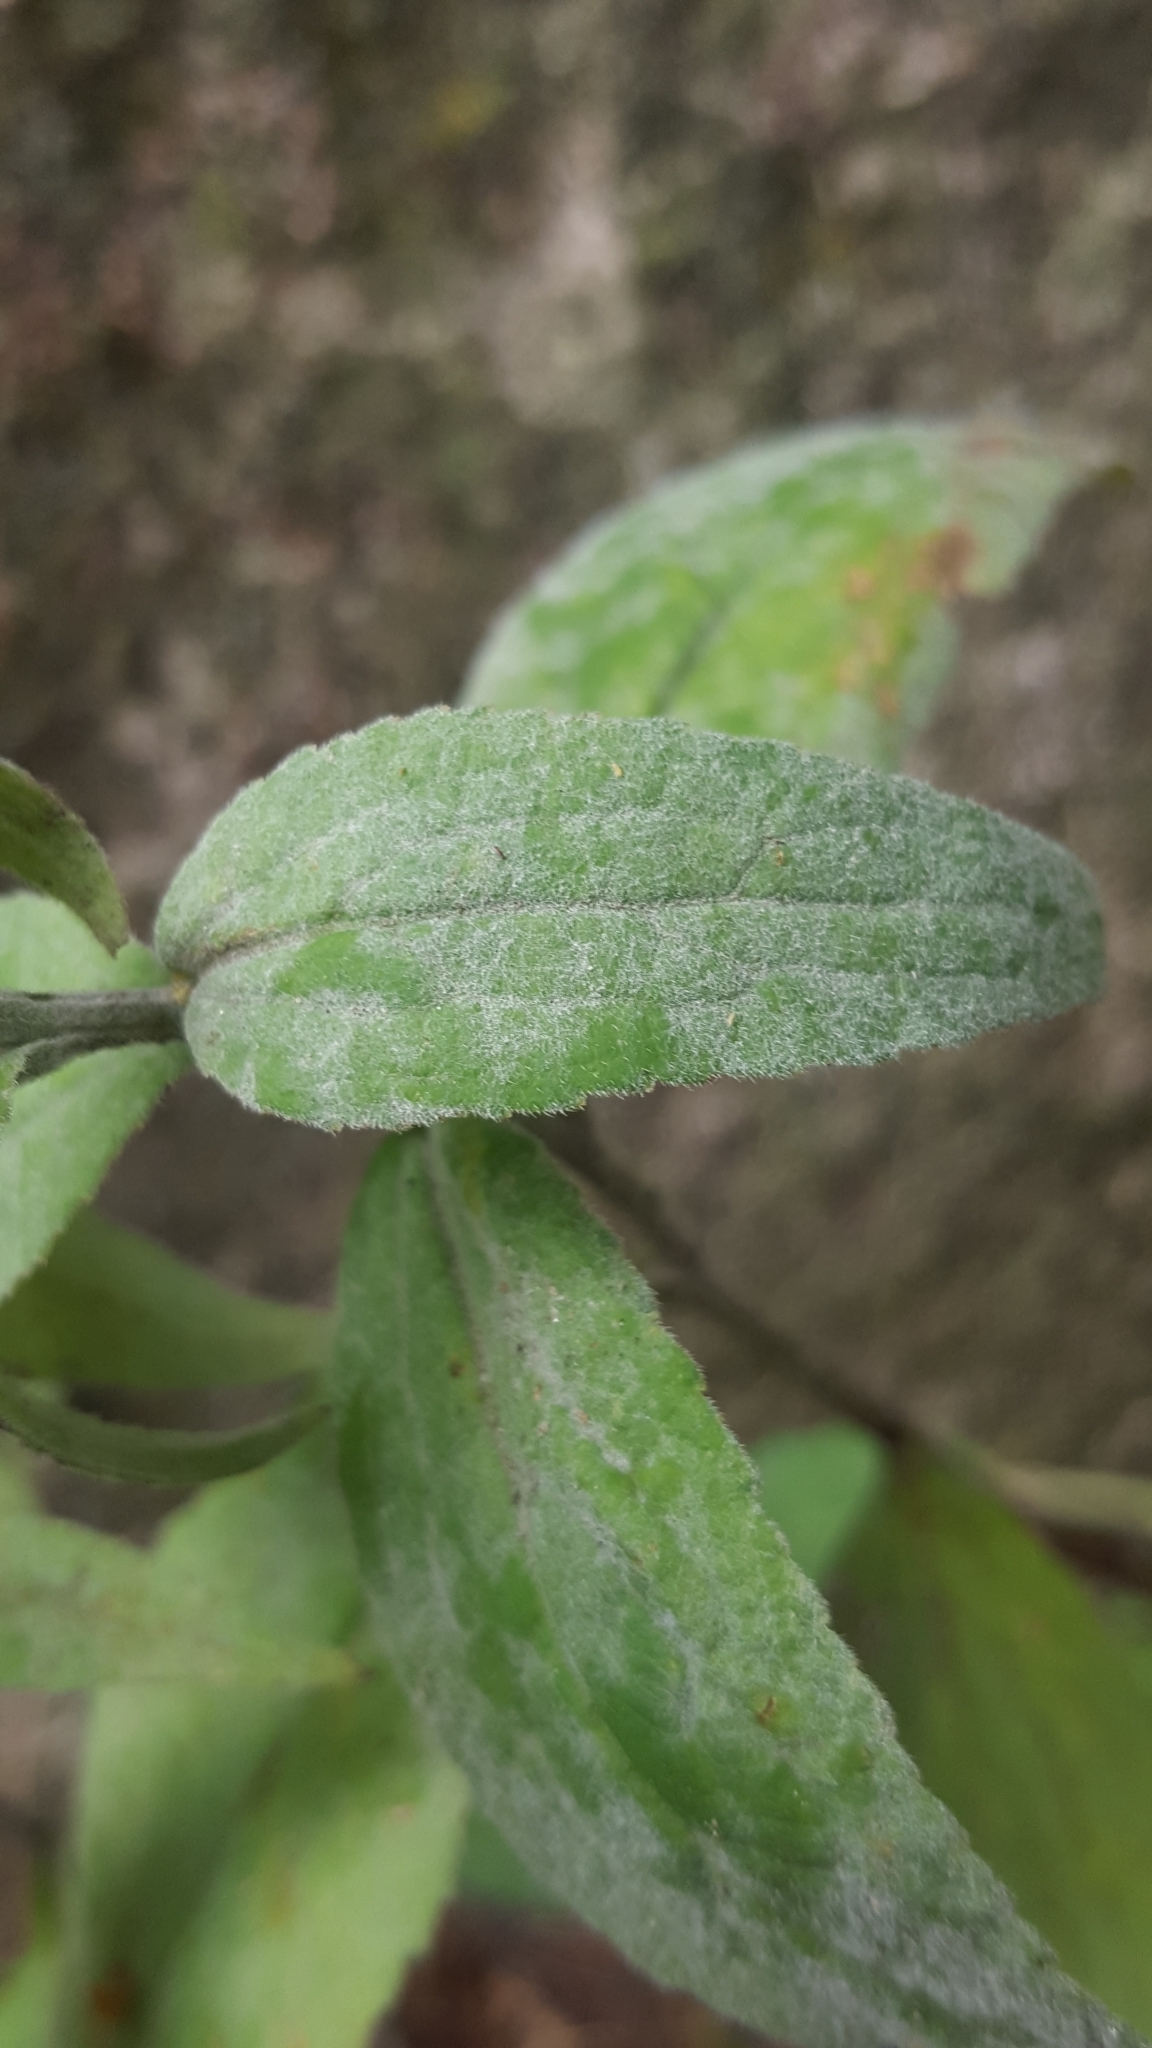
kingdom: Fungi
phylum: Ascomycota
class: Leotiomycetes
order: Helotiales
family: Erysiphaceae
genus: Golovinomyces
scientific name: Golovinomyces bolayi
